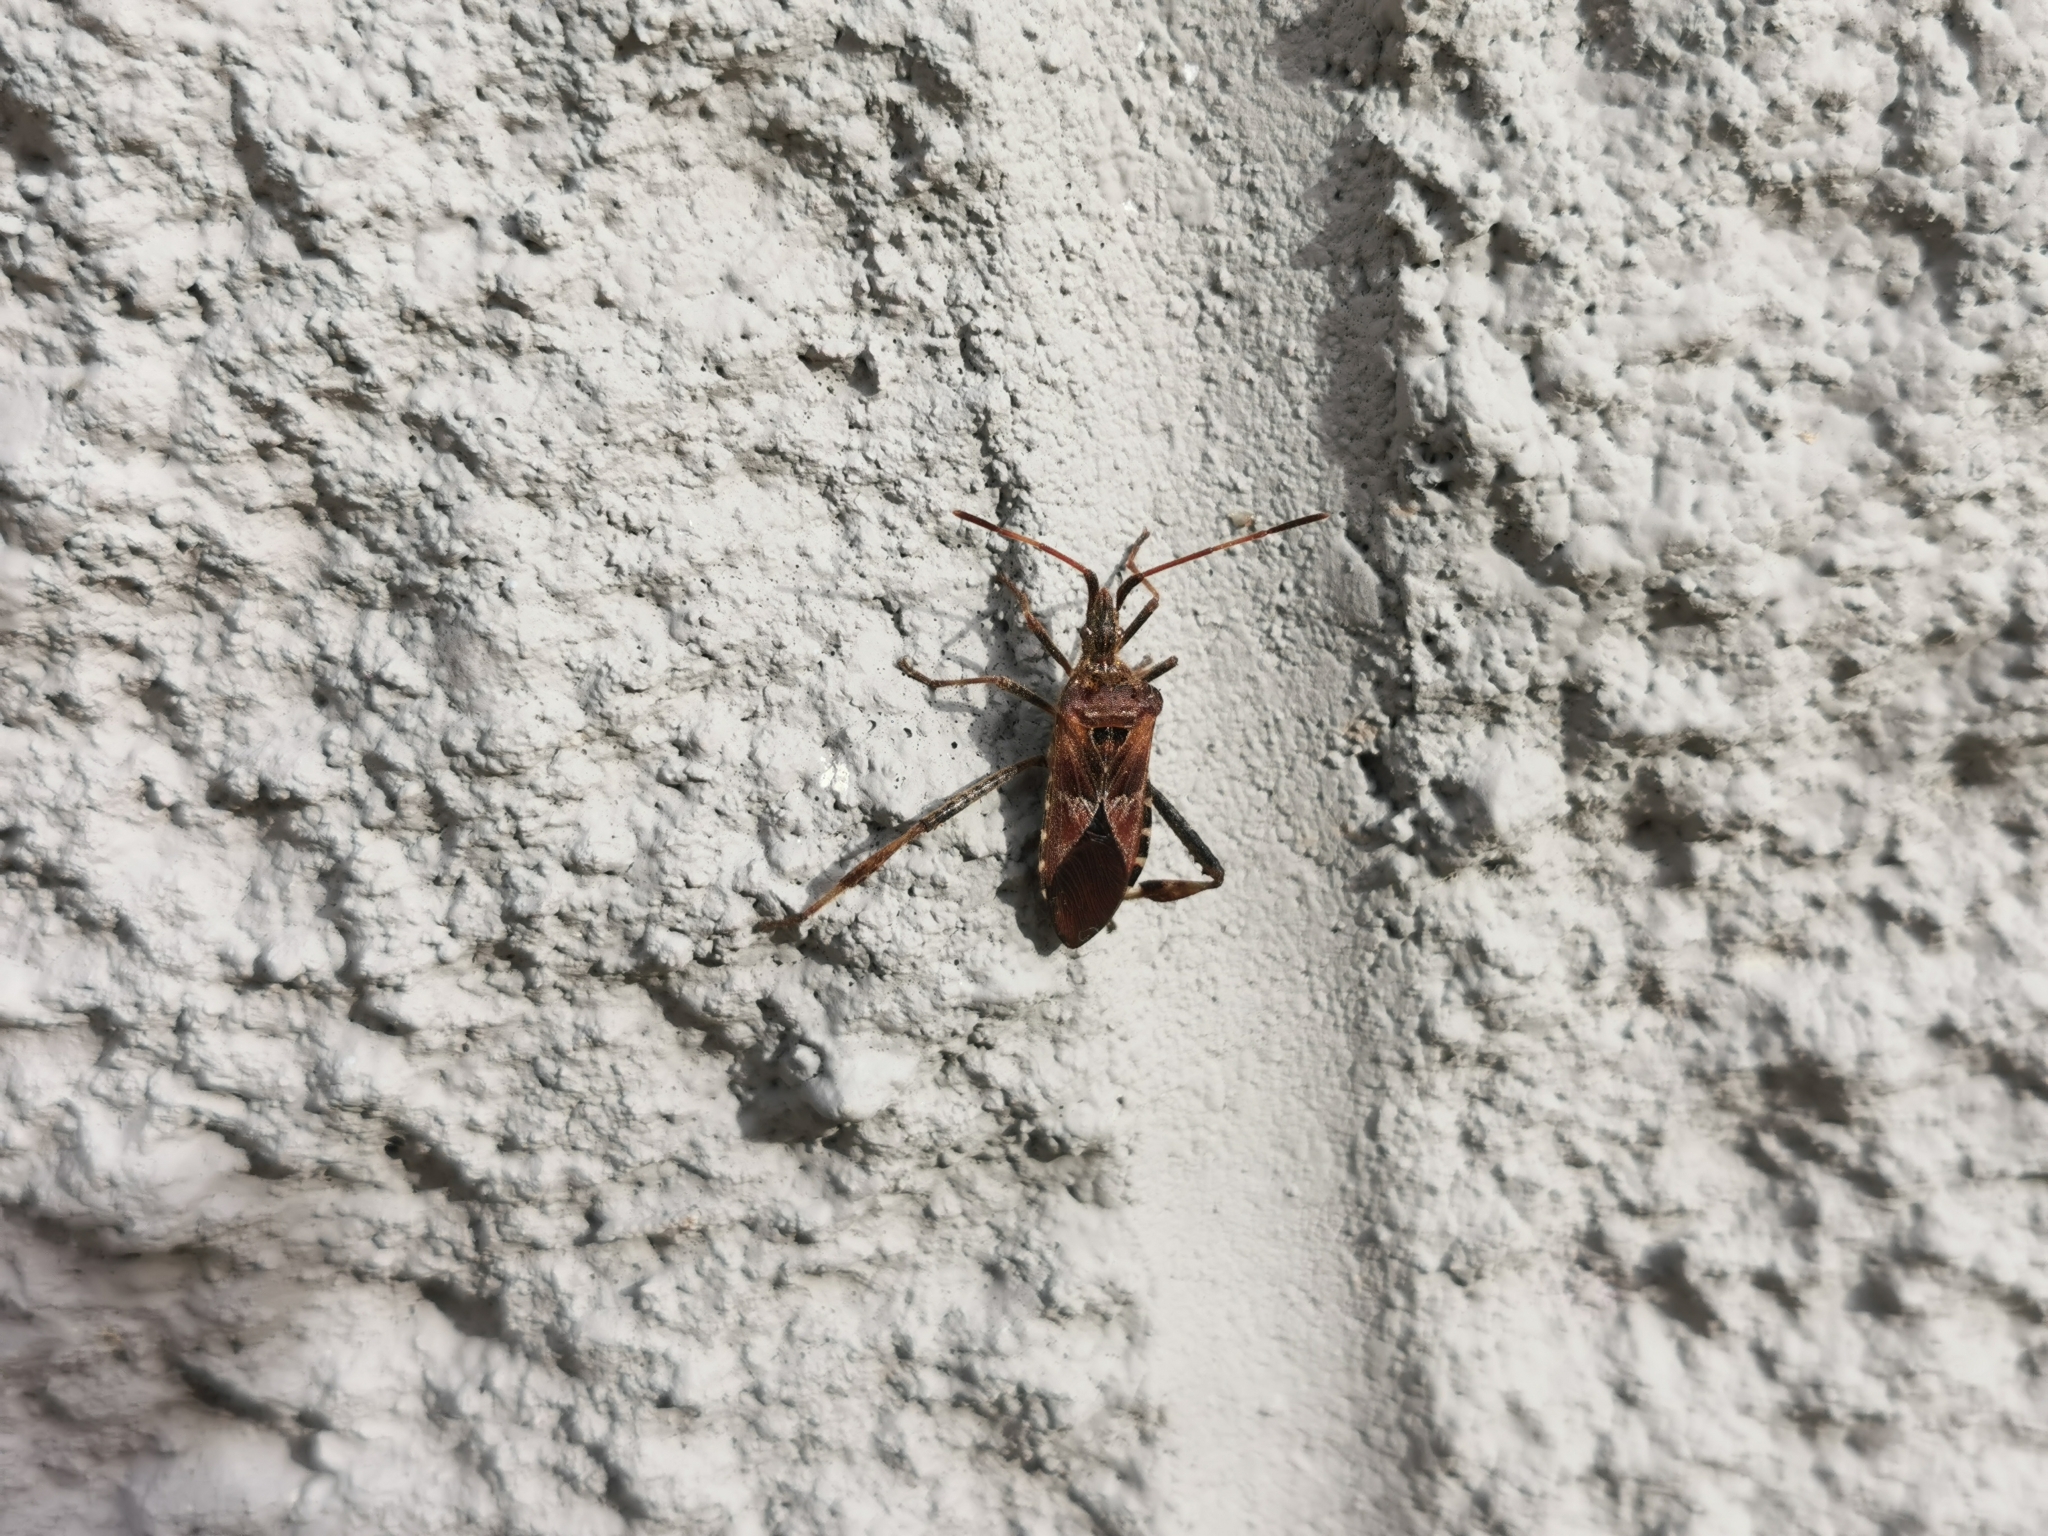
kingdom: Animalia
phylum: Arthropoda
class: Insecta
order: Hemiptera
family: Coreidae
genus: Leptoglossus
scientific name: Leptoglossus occidentalis
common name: Western conifer-seed bug
